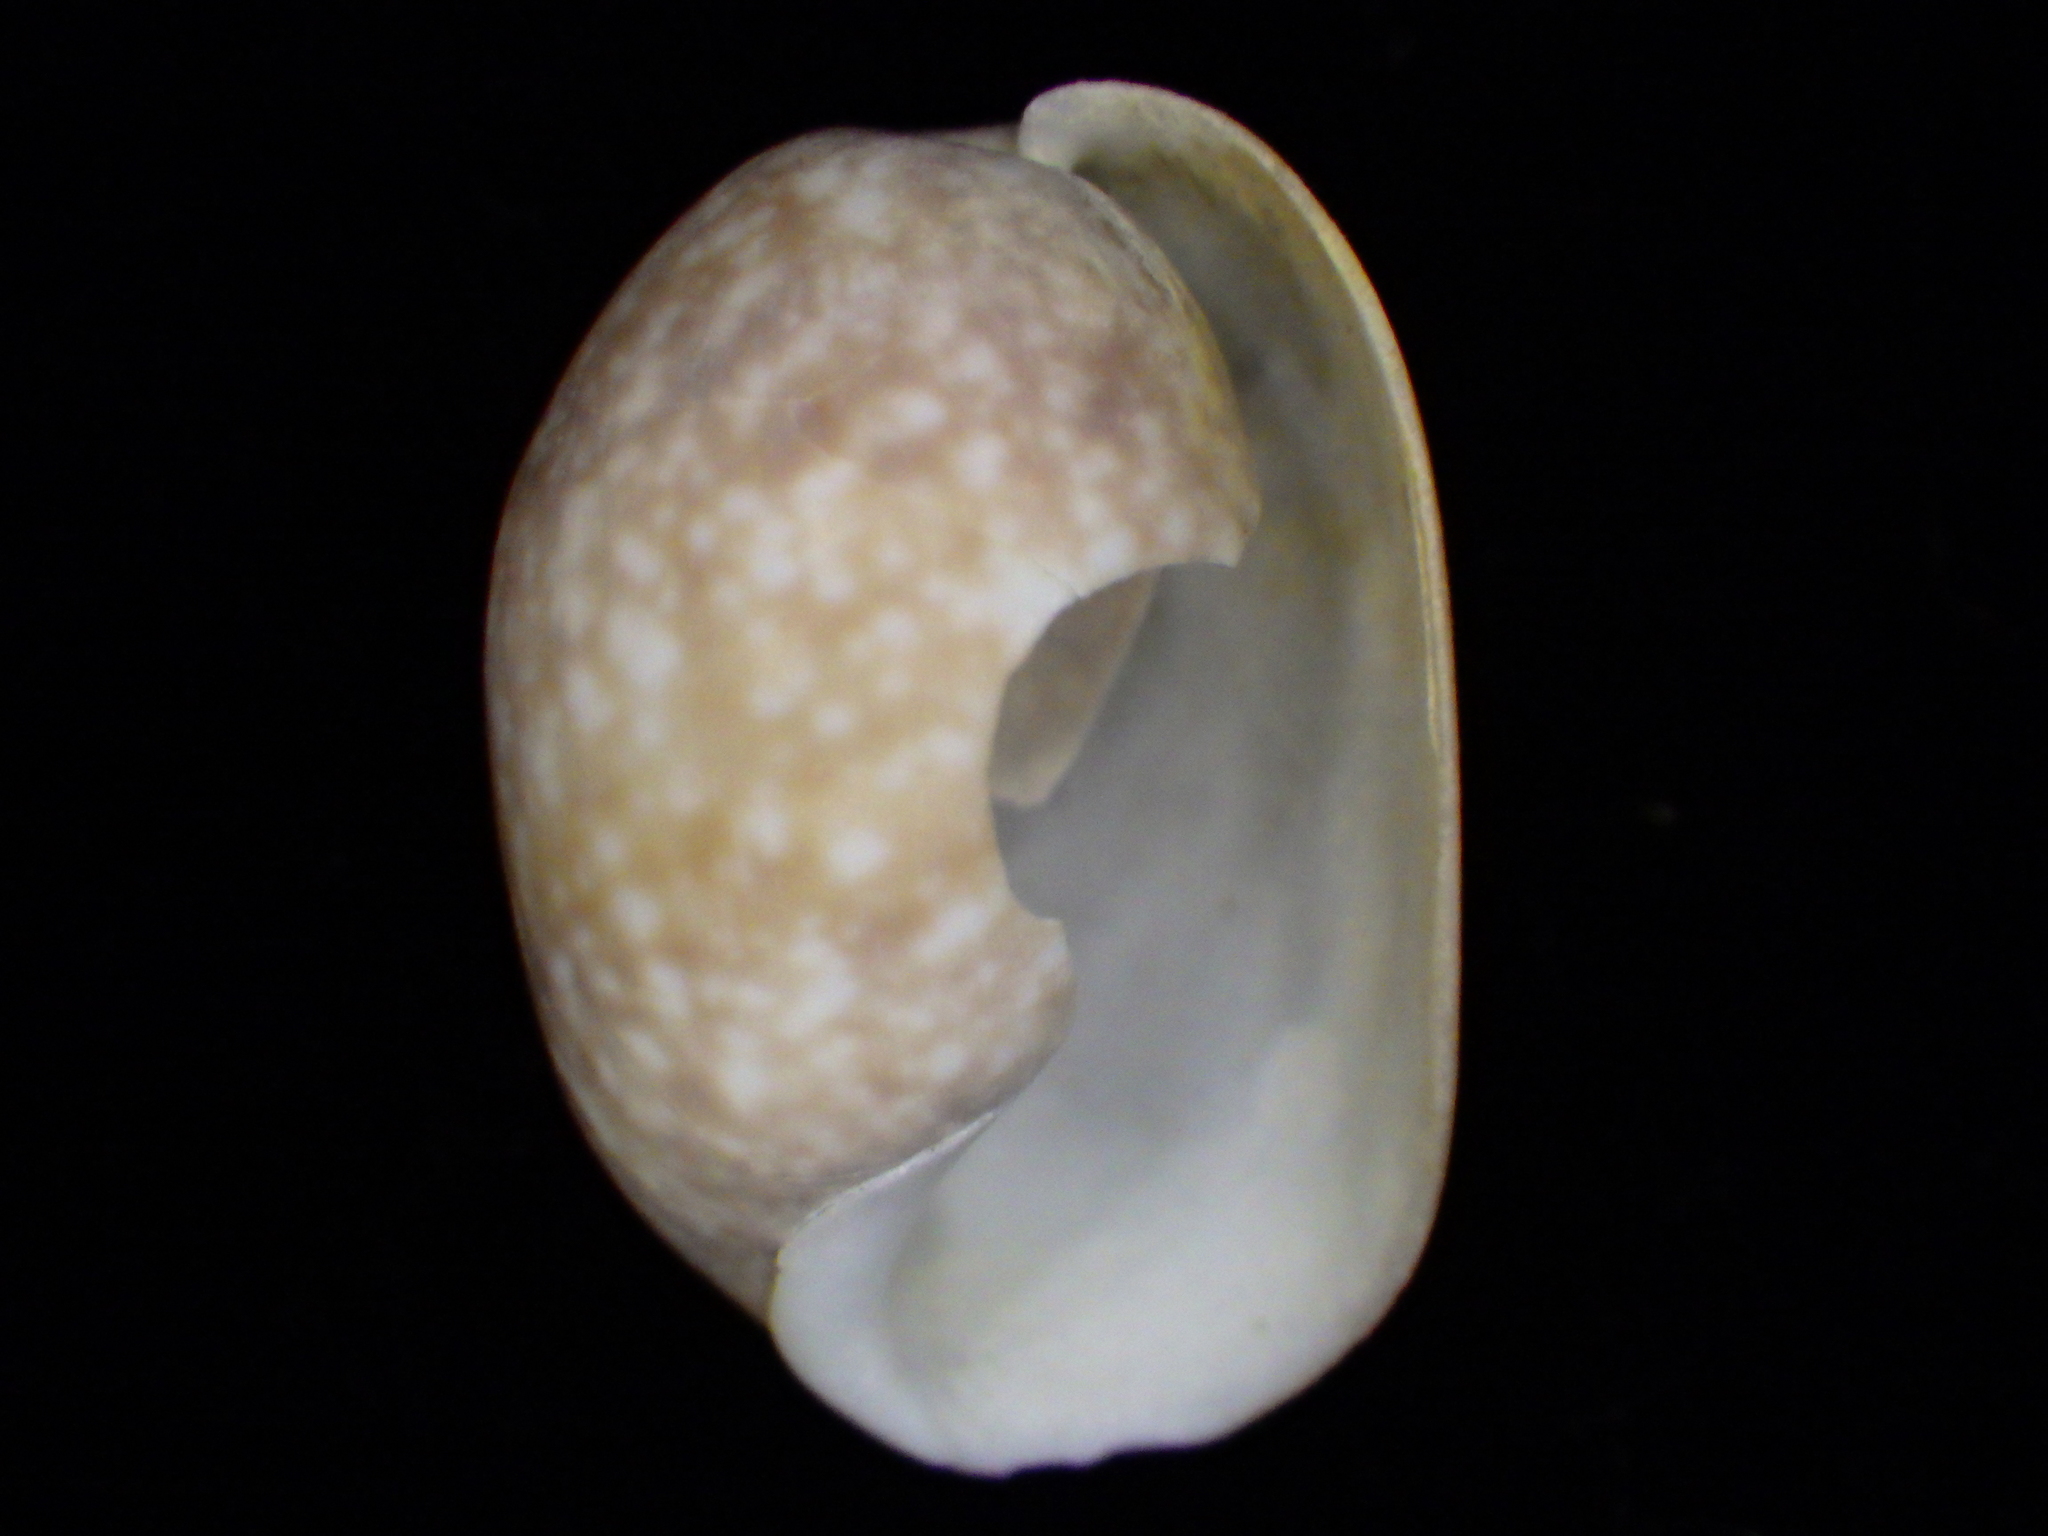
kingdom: Animalia
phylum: Mollusca
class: Gastropoda
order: Cephalaspidea
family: Bullidae
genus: Bulla
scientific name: Bulla vernicosa
